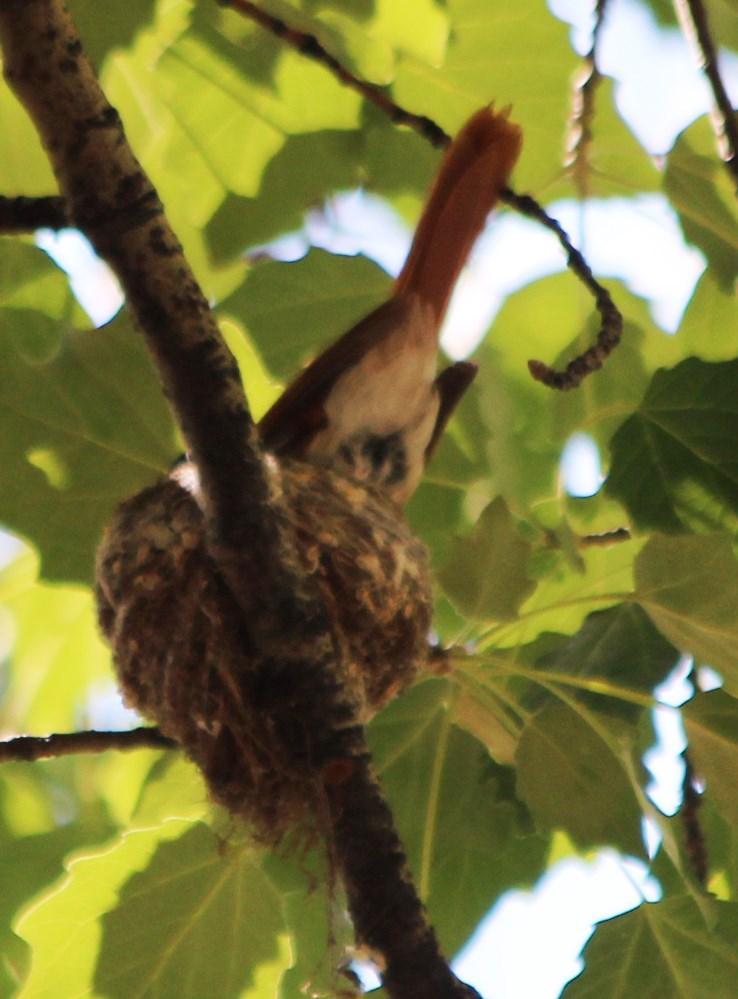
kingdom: Animalia
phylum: Chordata
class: Aves
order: Passeriformes
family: Monarchidae
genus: Terpsiphone
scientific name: Terpsiphone viridis
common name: African paradise flycatcher
